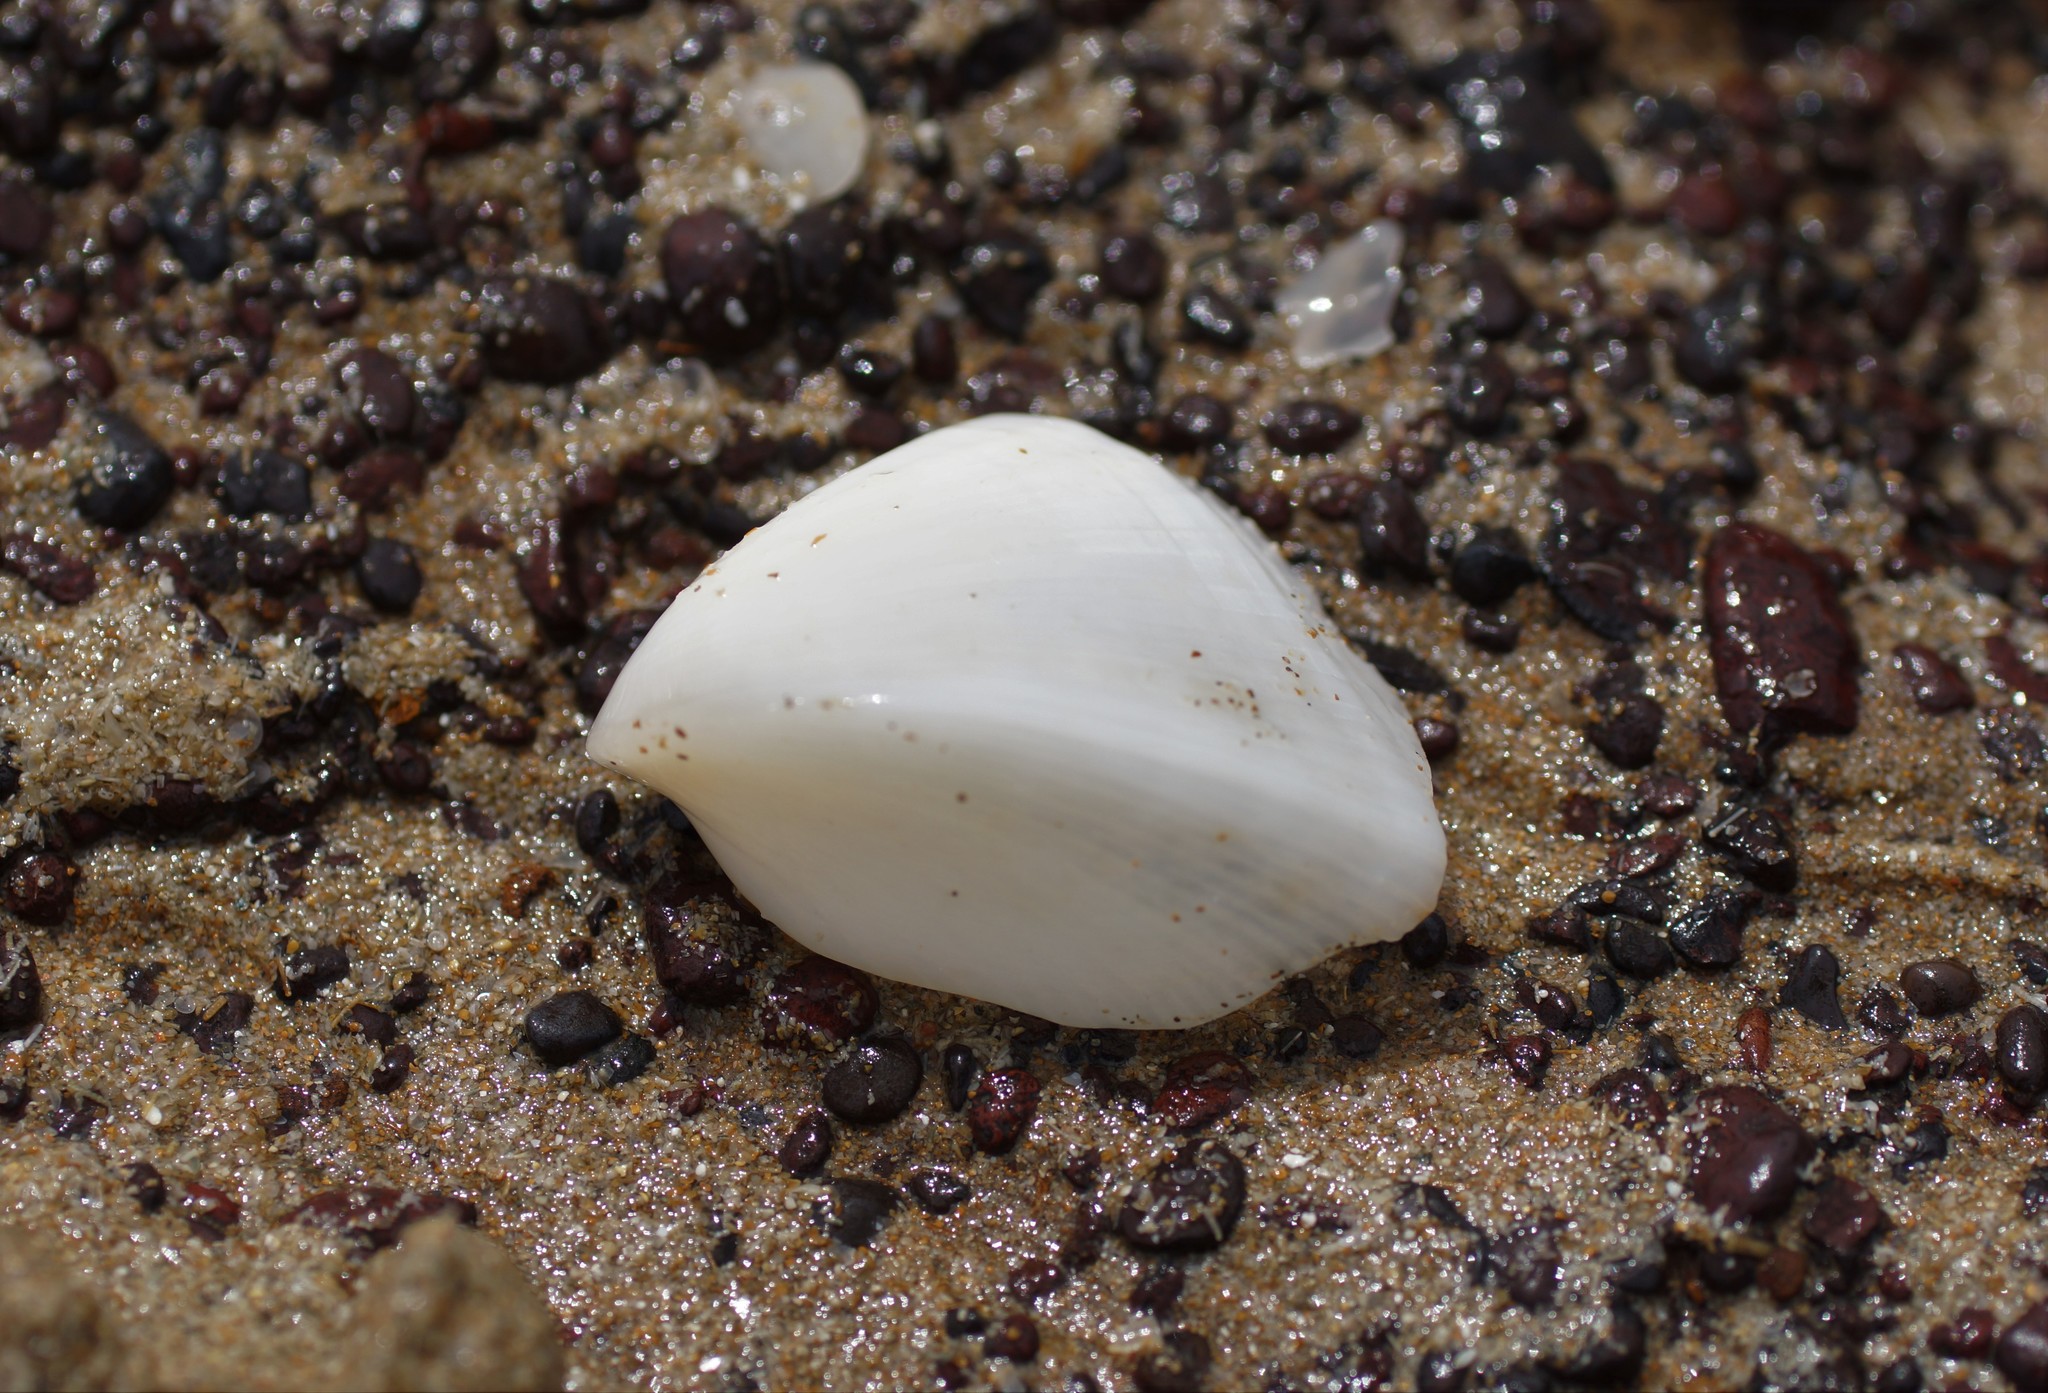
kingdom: Animalia
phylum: Mollusca
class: Bivalvia
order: Cardiida
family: Cardiidae
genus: Lunulicardia
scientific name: Lunulicardia retusa
